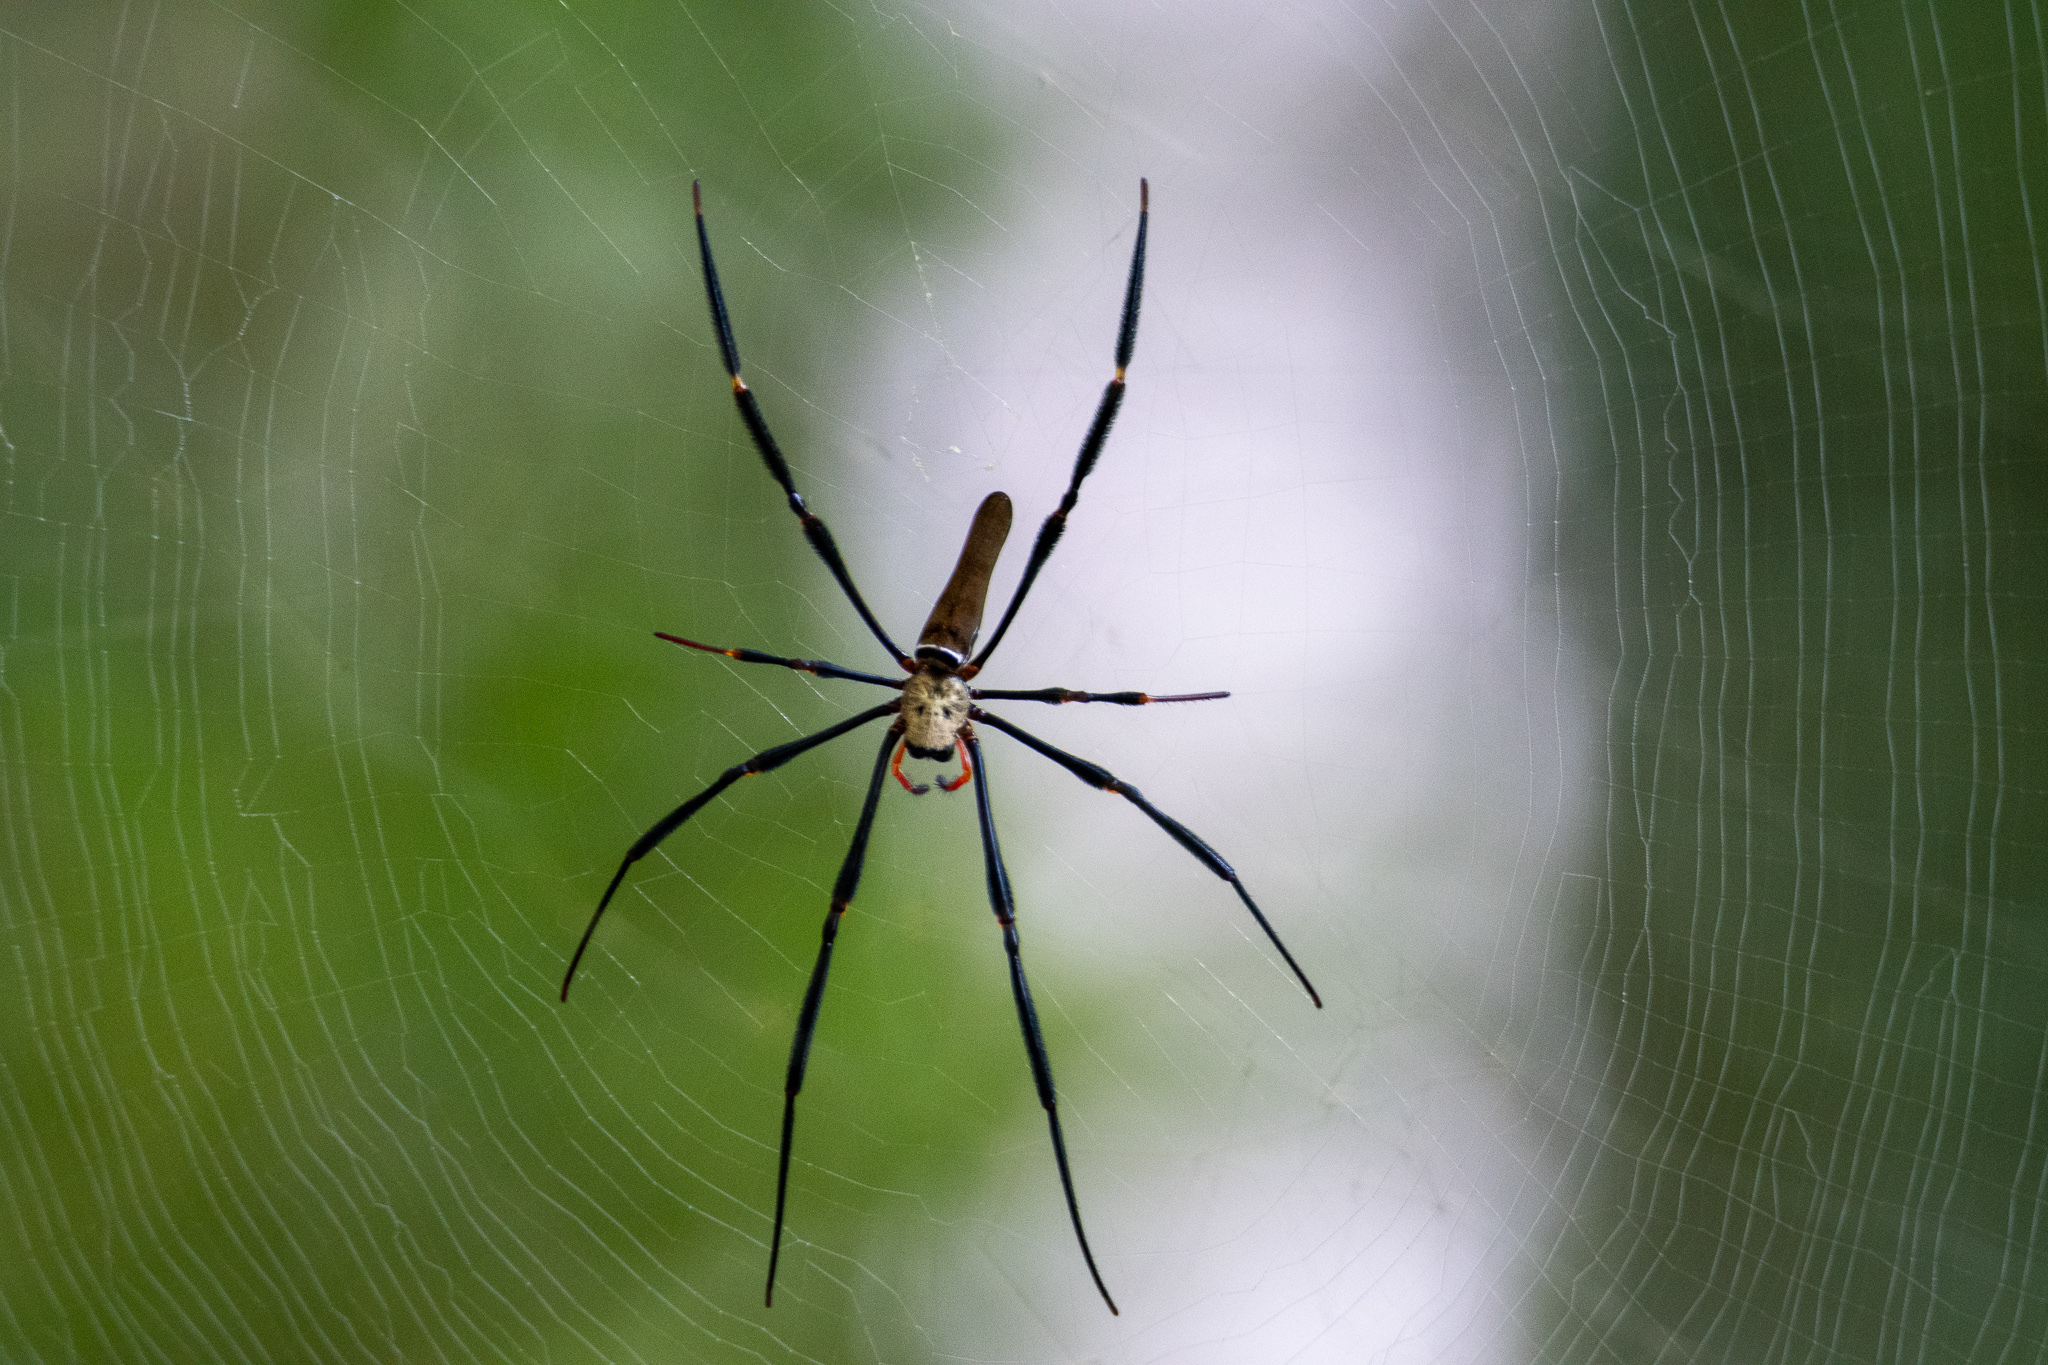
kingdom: Animalia
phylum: Arthropoda
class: Arachnida
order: Araneae
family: Araneidae
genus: Nephila
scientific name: Nephila pilipes
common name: Giant golden orb weaver
